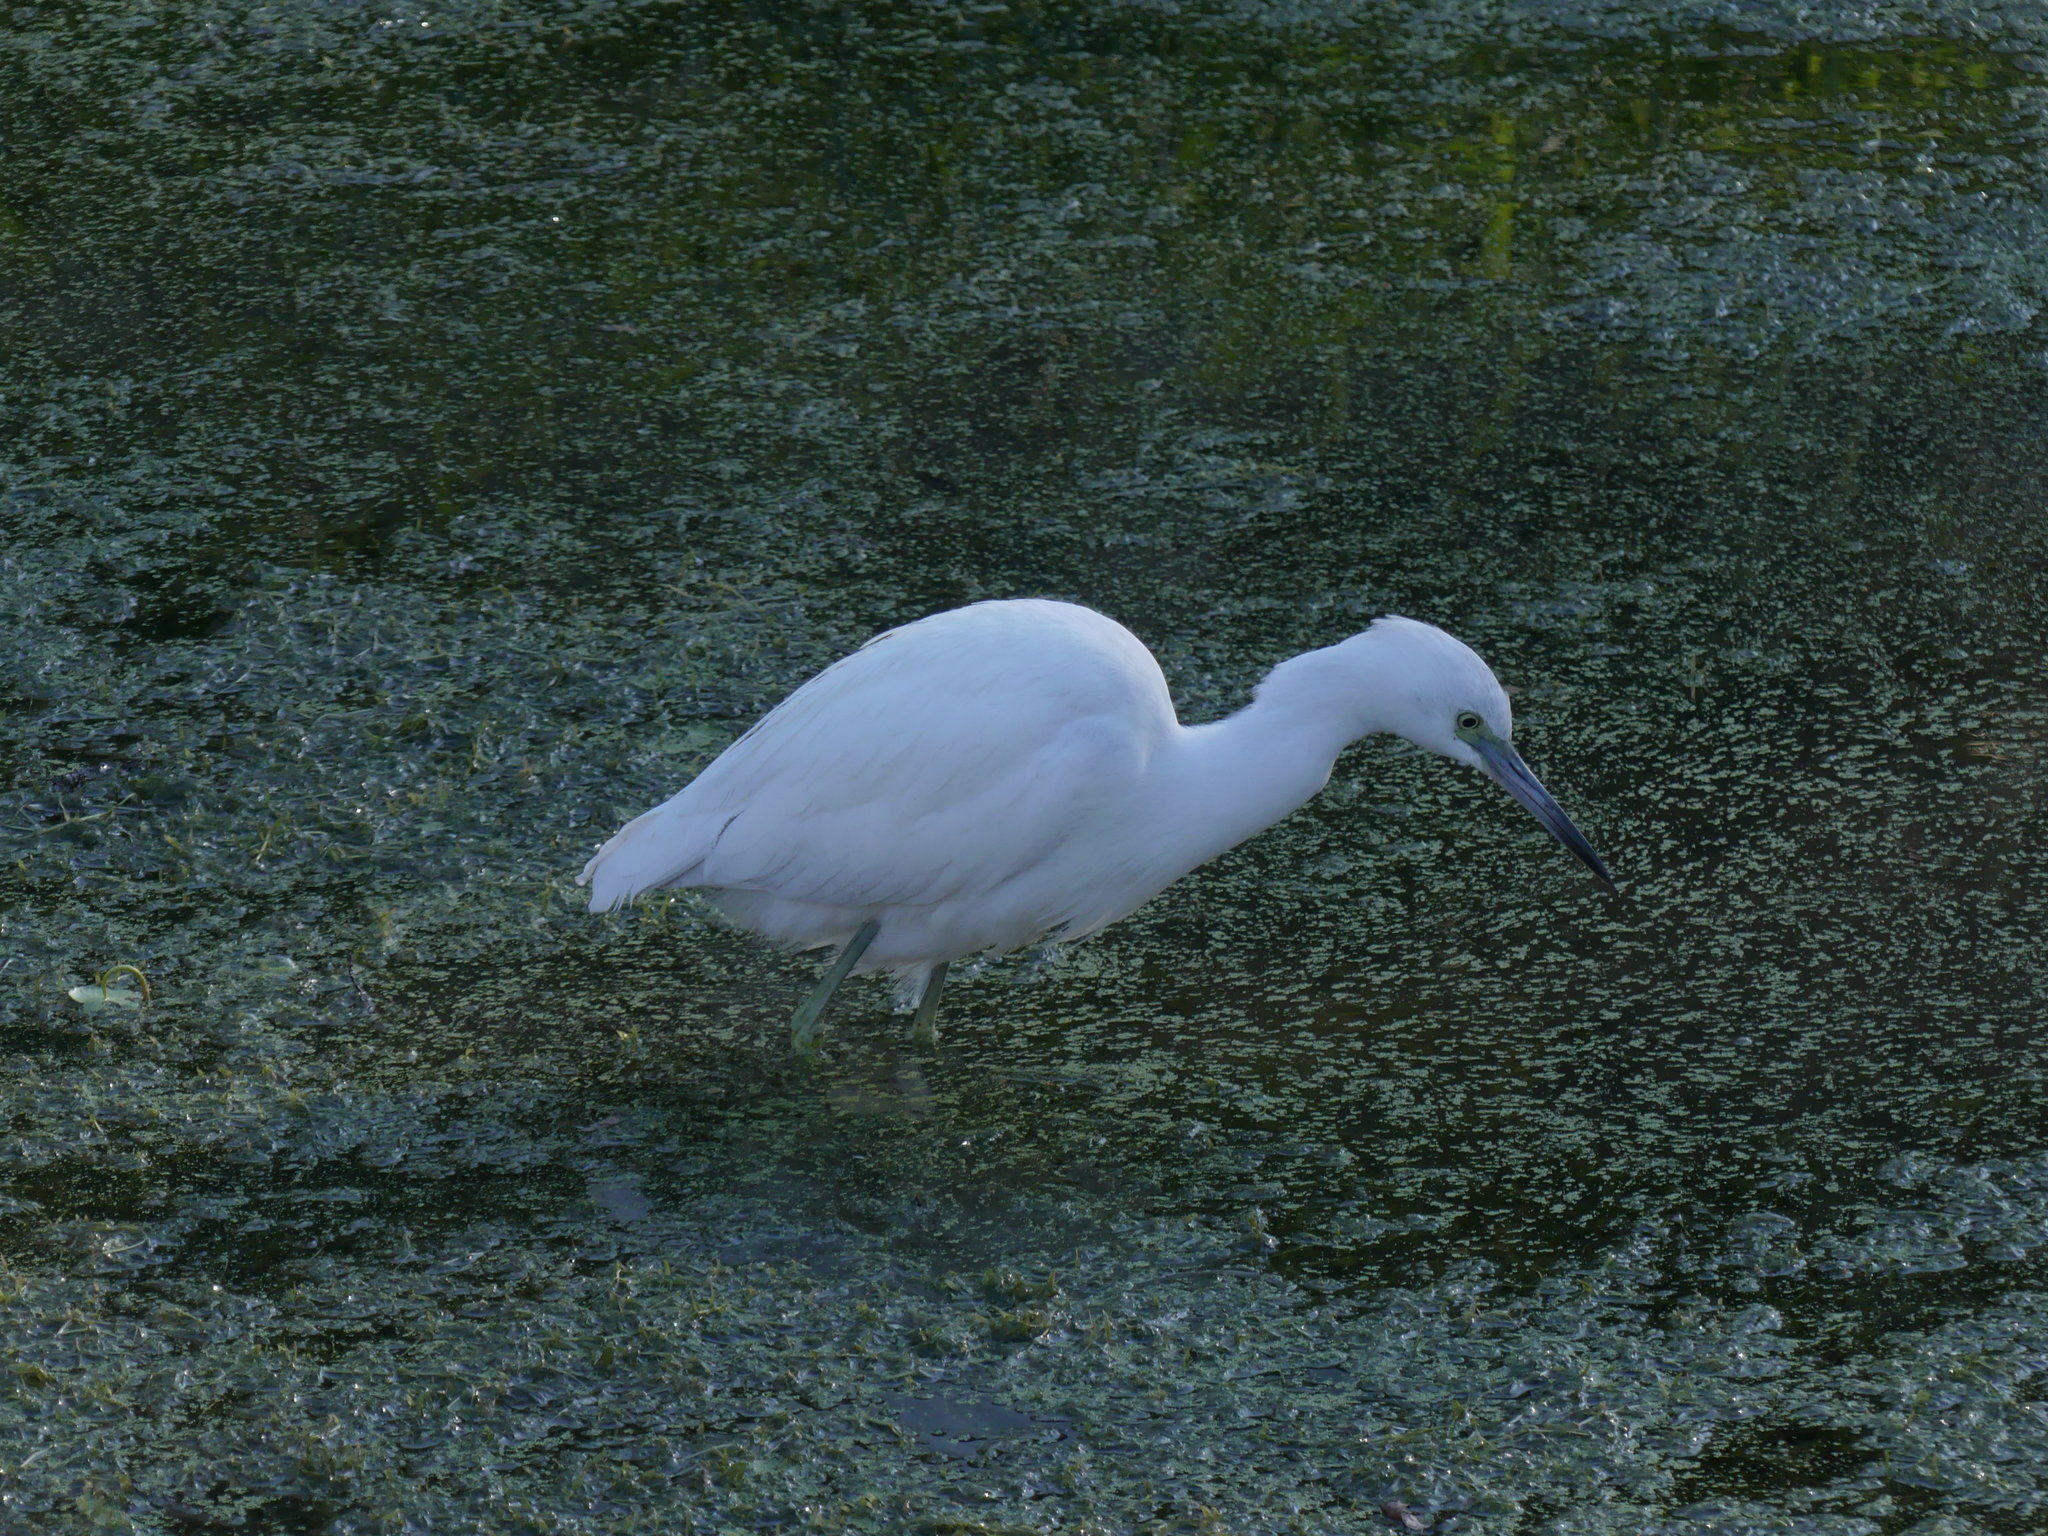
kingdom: Animalia
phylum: Chordata
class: Aves
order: Pelecaniformes
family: Ardeidae
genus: Egretta
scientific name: Egretta thula
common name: Snowy egret
